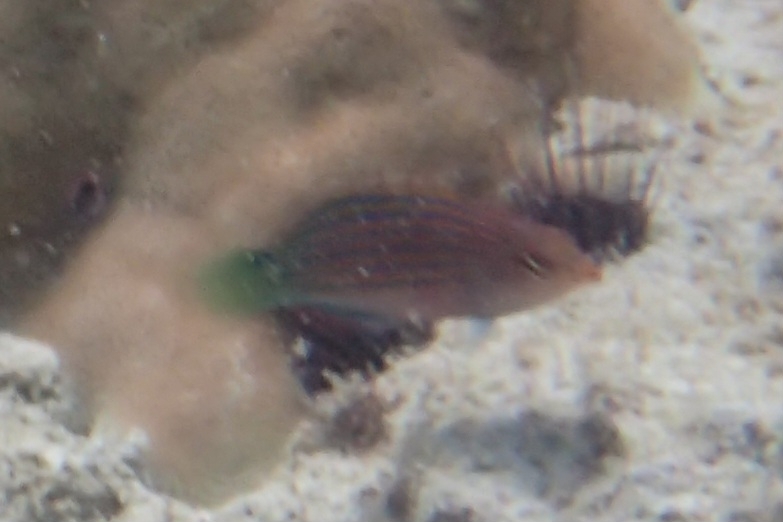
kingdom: Animalia
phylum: Chordata
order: Perciformes
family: Labridae
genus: Pseudocheilinus
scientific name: Pseudocheilinus hexataenia
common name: Sixline wrasse
